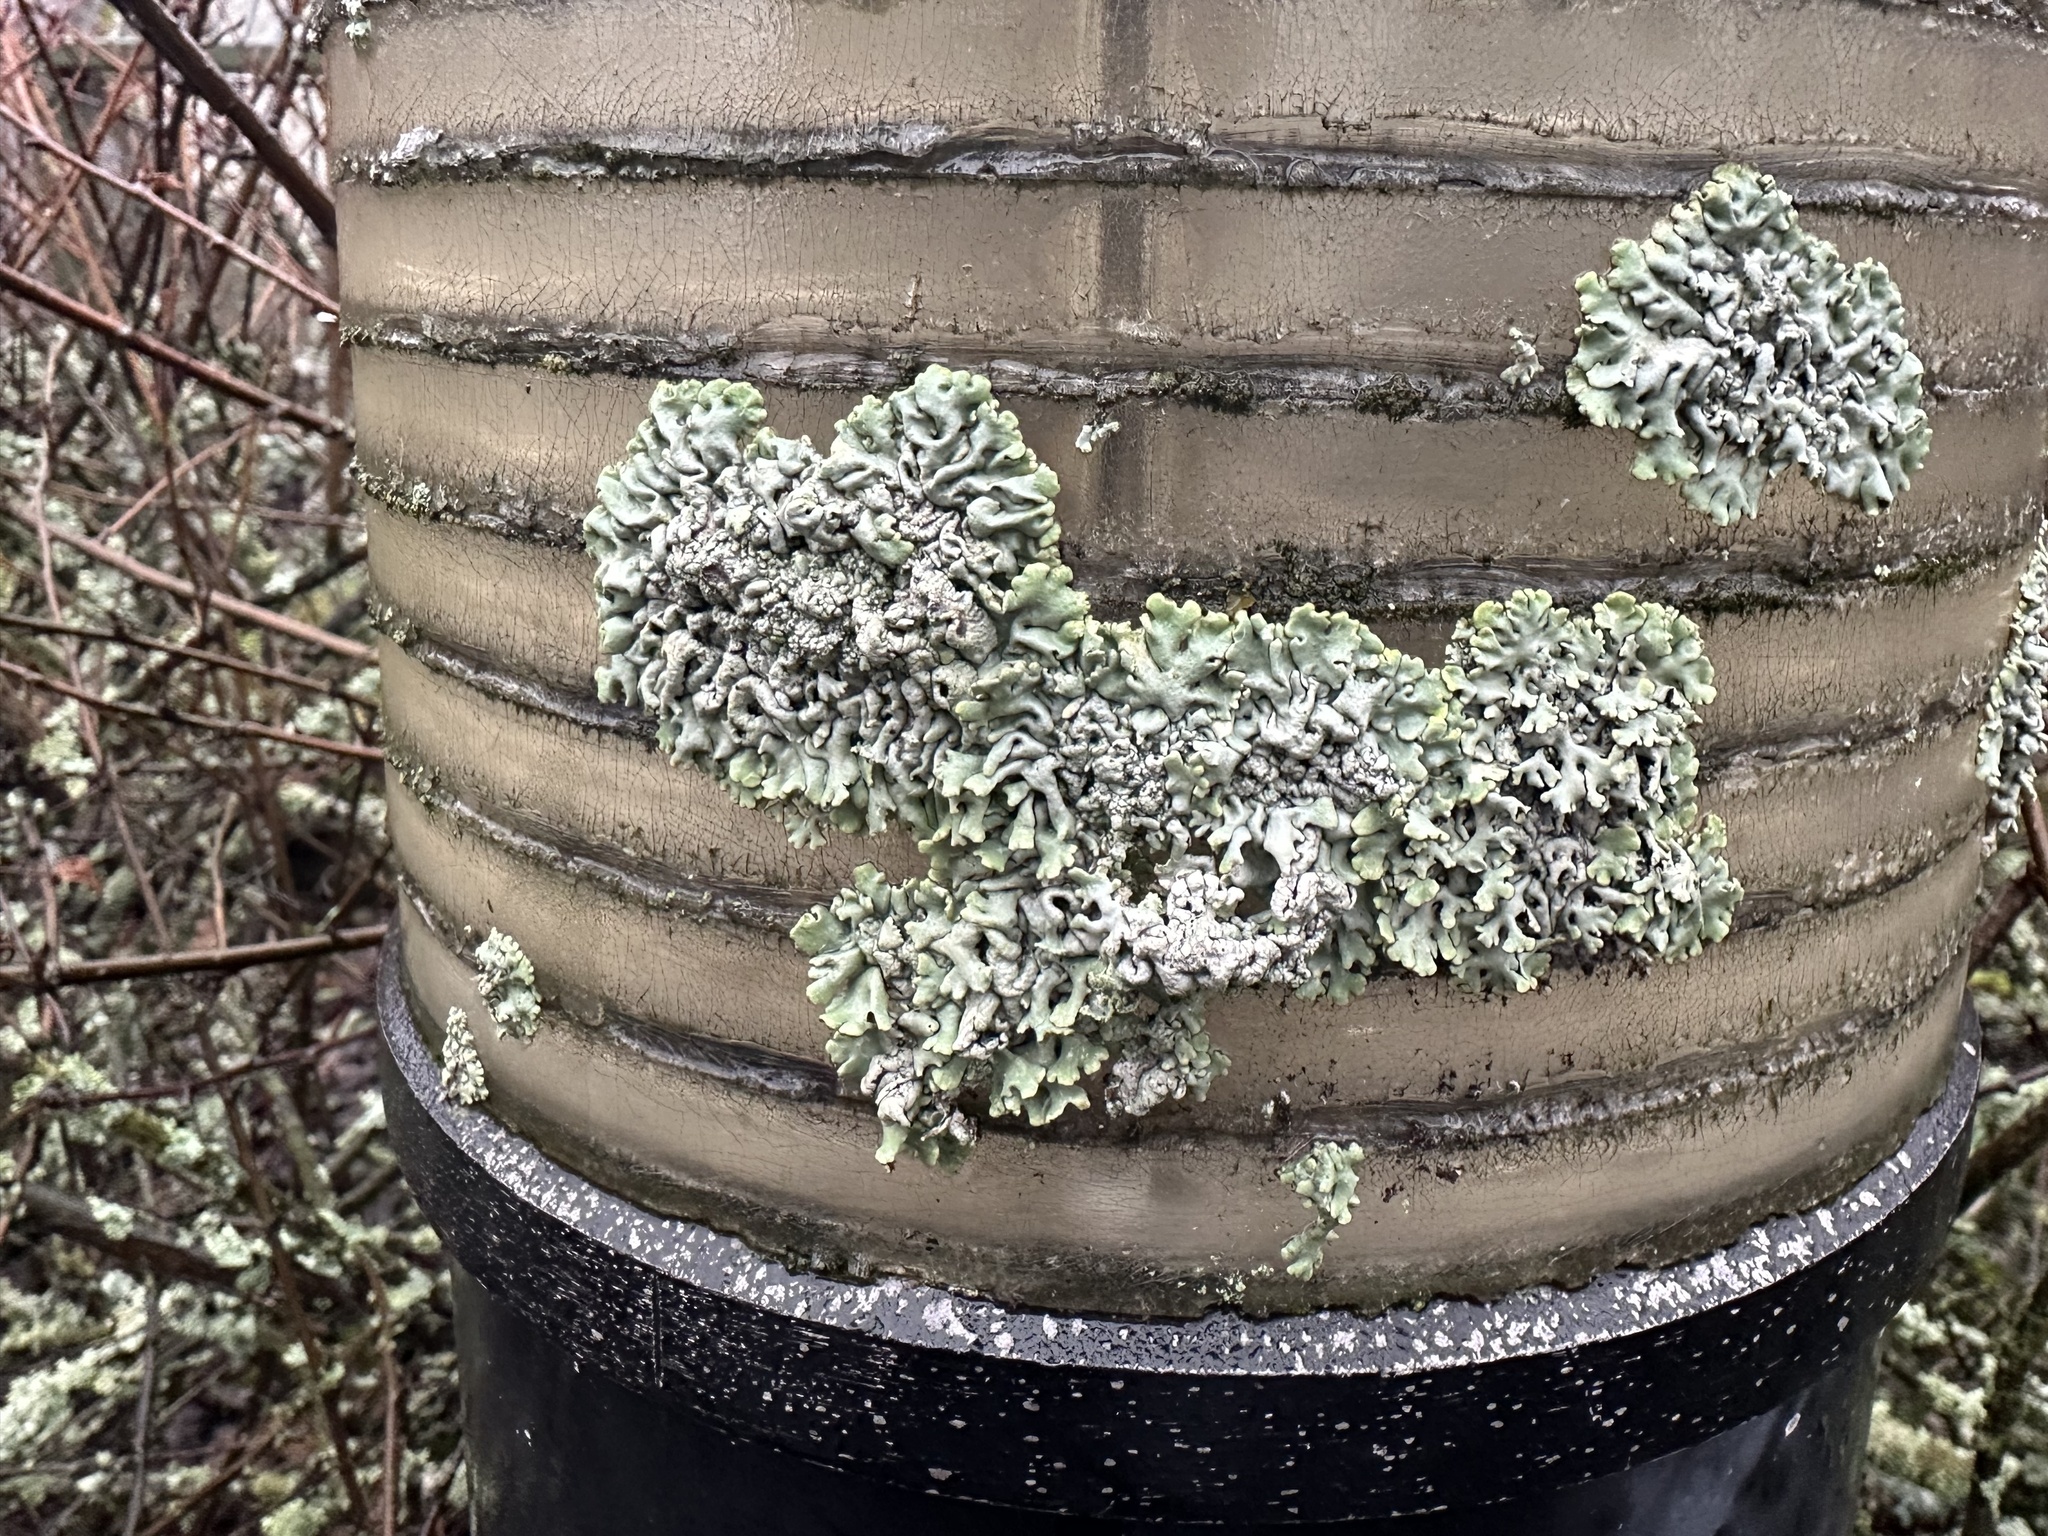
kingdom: Fungi
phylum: Ascomycota
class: Lecanoromycetes
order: Lecanorales
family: Parmeliaceae
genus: Hypogymnia
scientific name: Hypogymnia physodes
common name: Dark crottle
